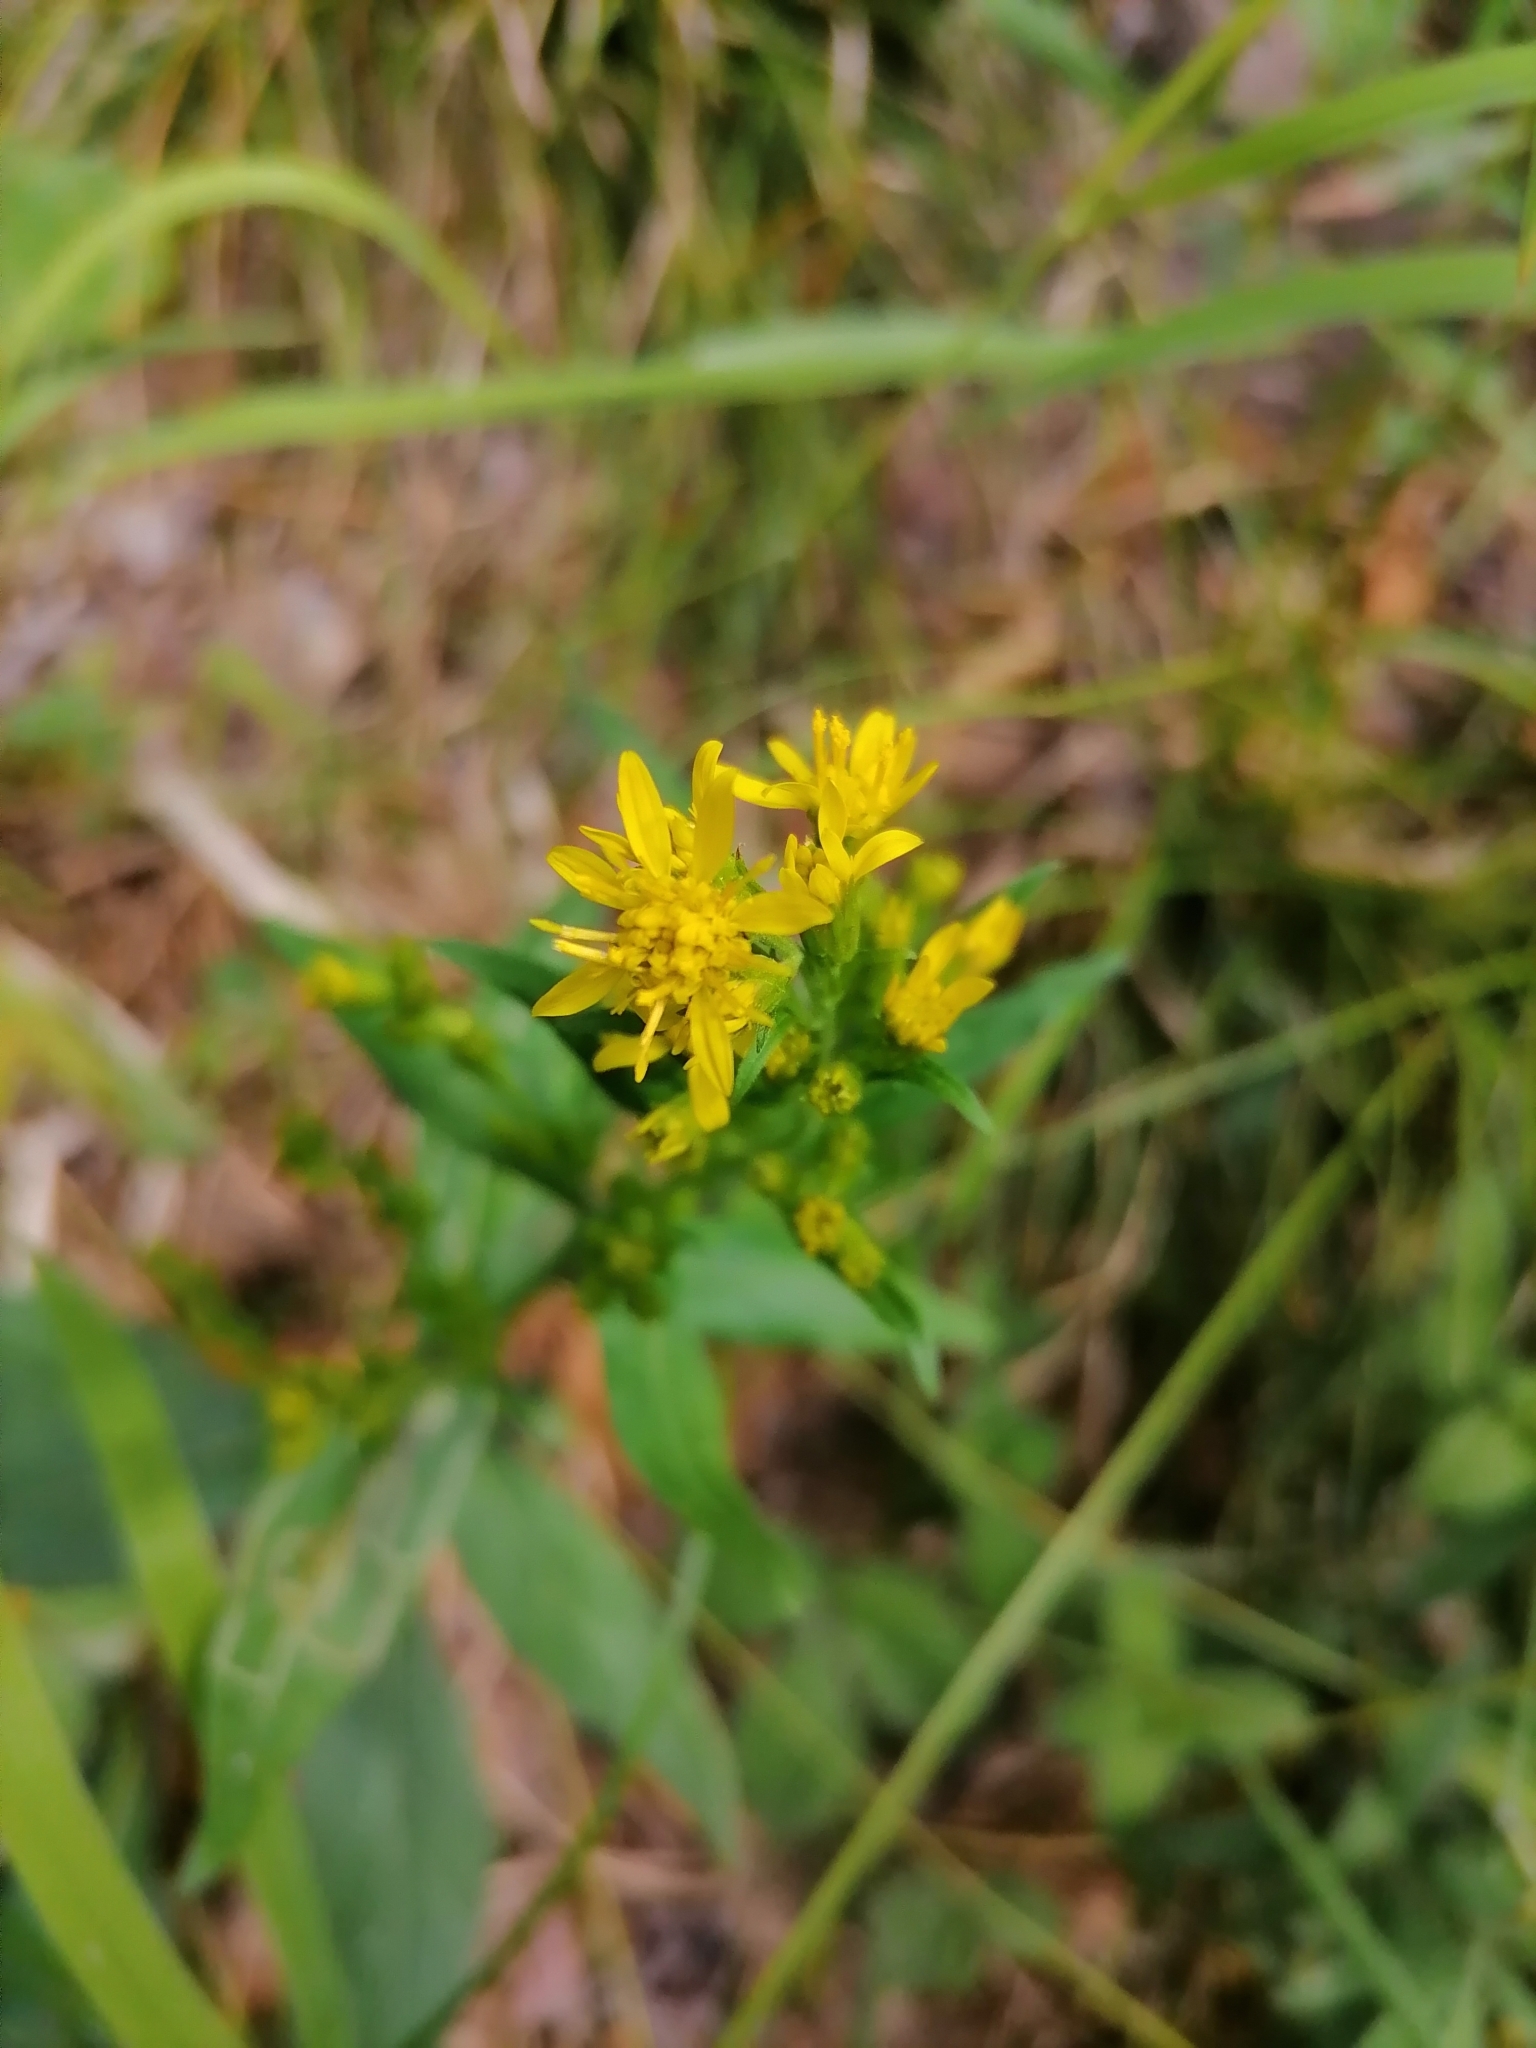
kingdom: Plantae
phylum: Tracheophyta
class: Magnoliopsida
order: Asterales
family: Asteraceae
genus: Solidago
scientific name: Solidago virgaurea
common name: Goldenrod
